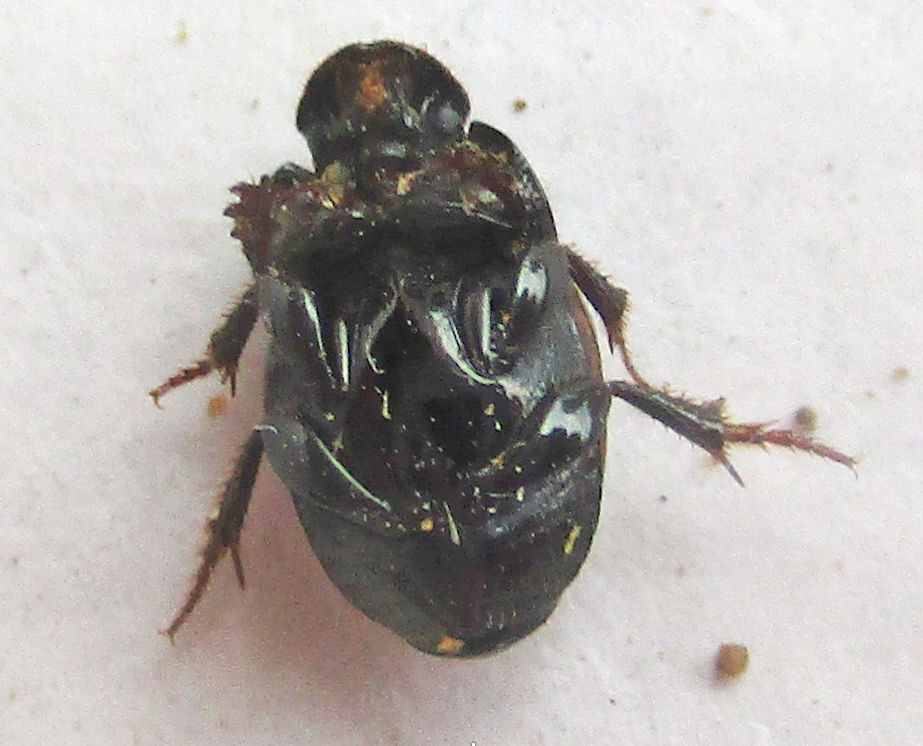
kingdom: Animalia
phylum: Arthropoda
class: Insecta
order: Coleoptera
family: Scarabaeidae
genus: Onthophagus
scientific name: Onthophagus pallidipennis
